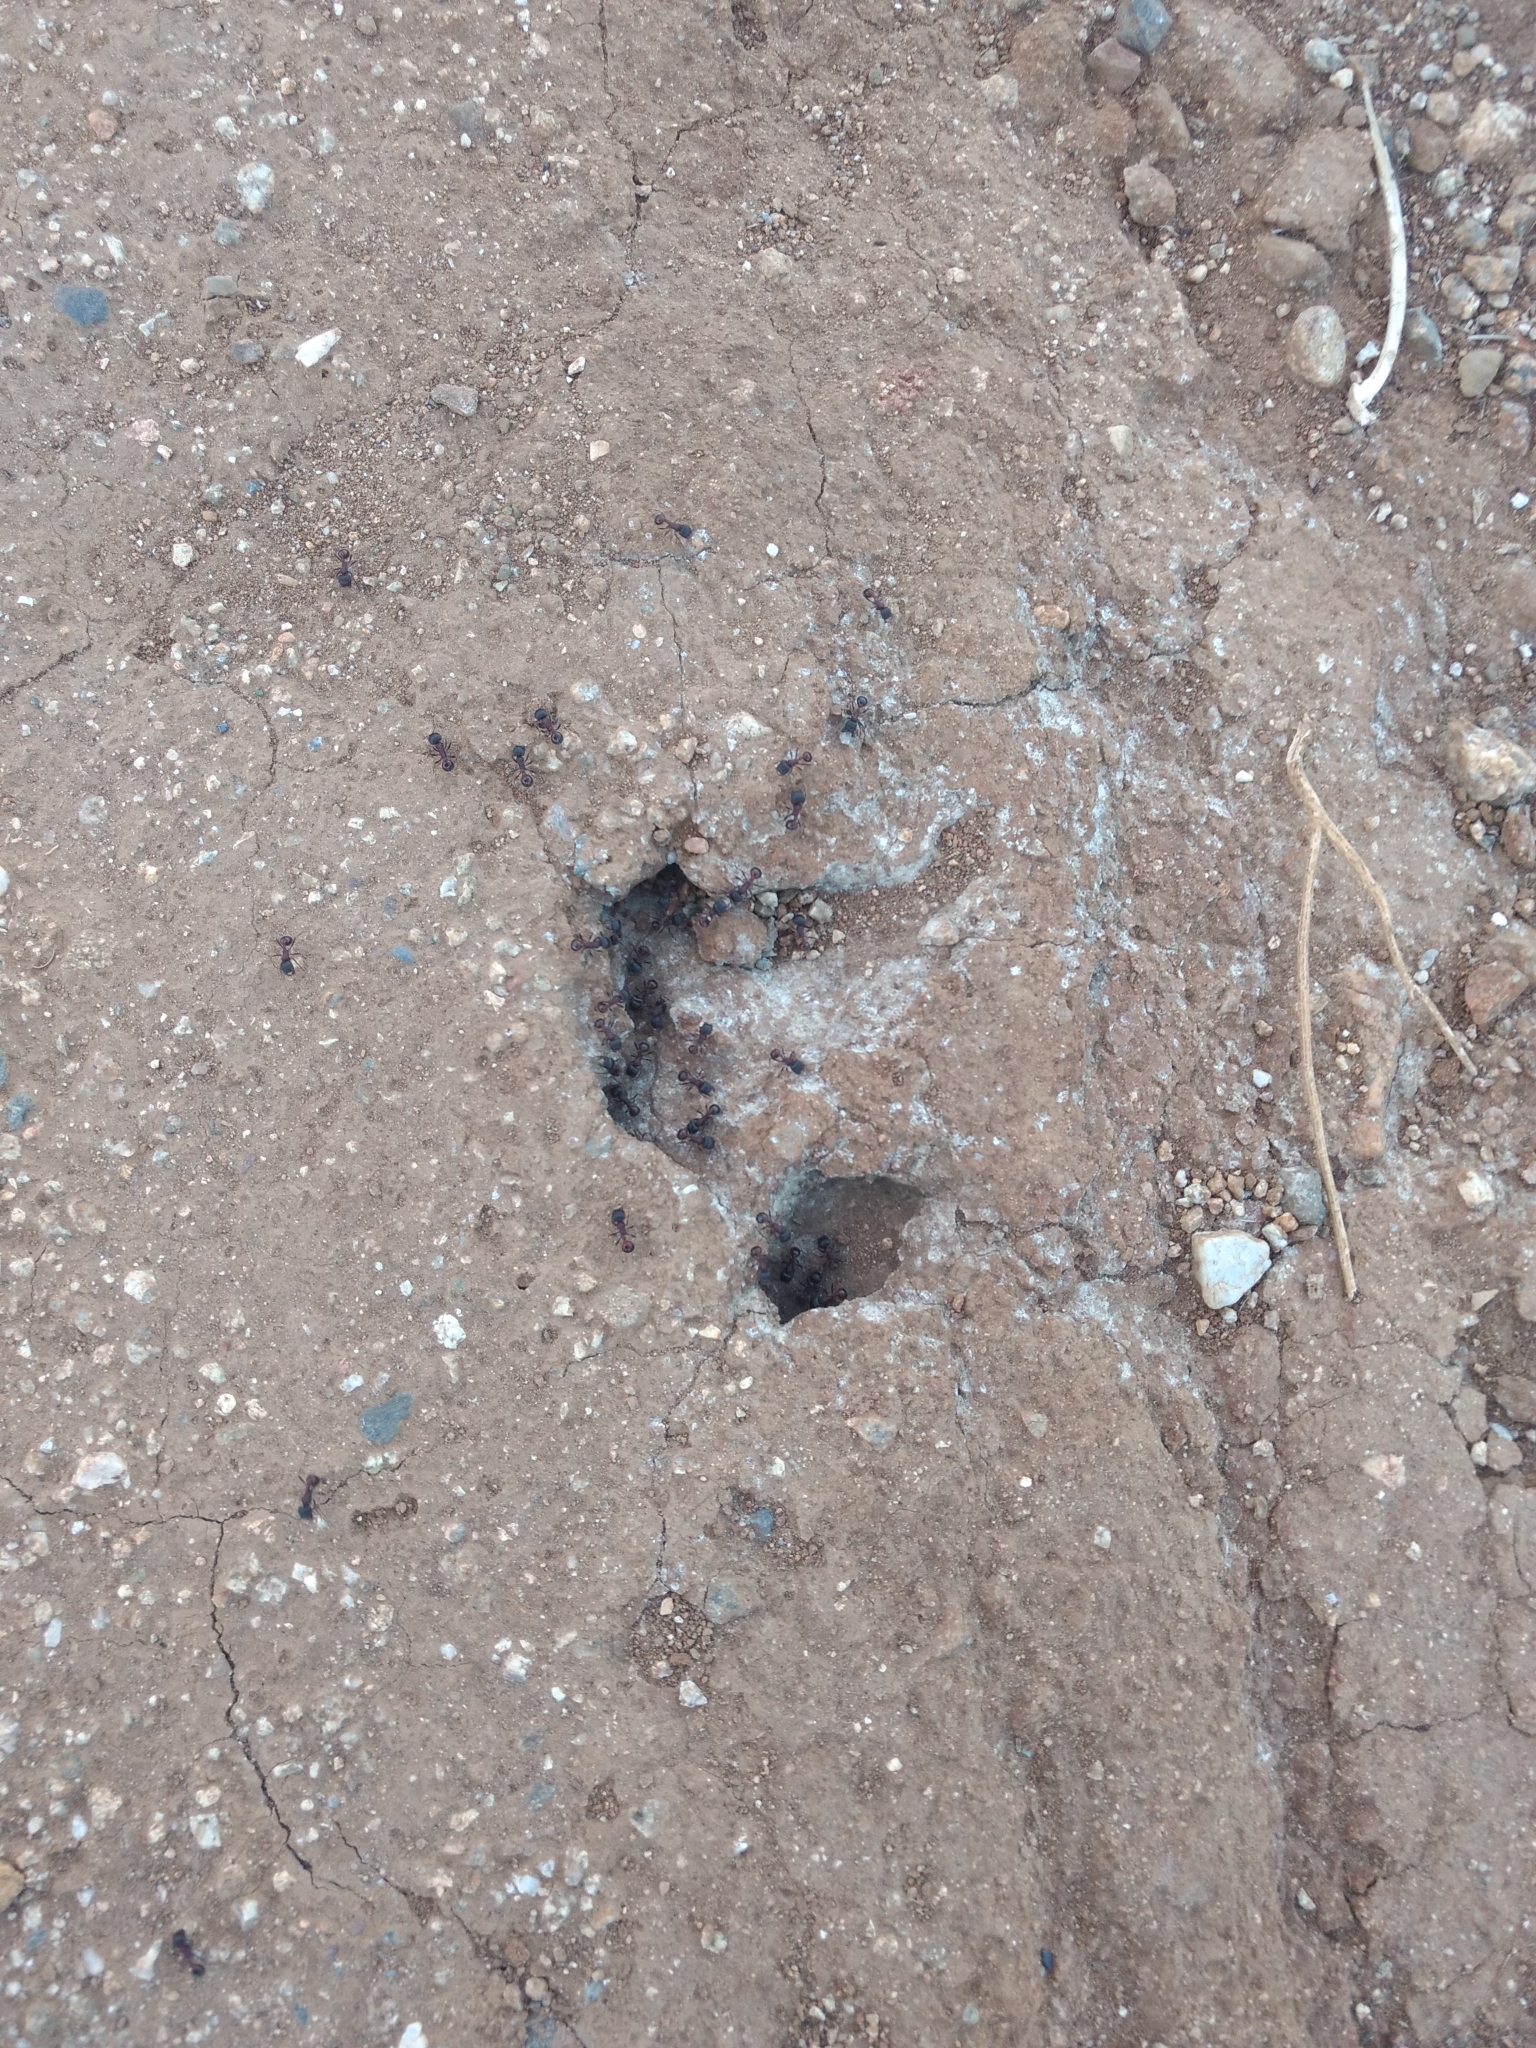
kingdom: Animalia
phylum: Arthropoda
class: Insecta
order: Hymenoptera
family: Formicidae
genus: Pogonomyrmex
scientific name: Pogonomyrmex rugosus
